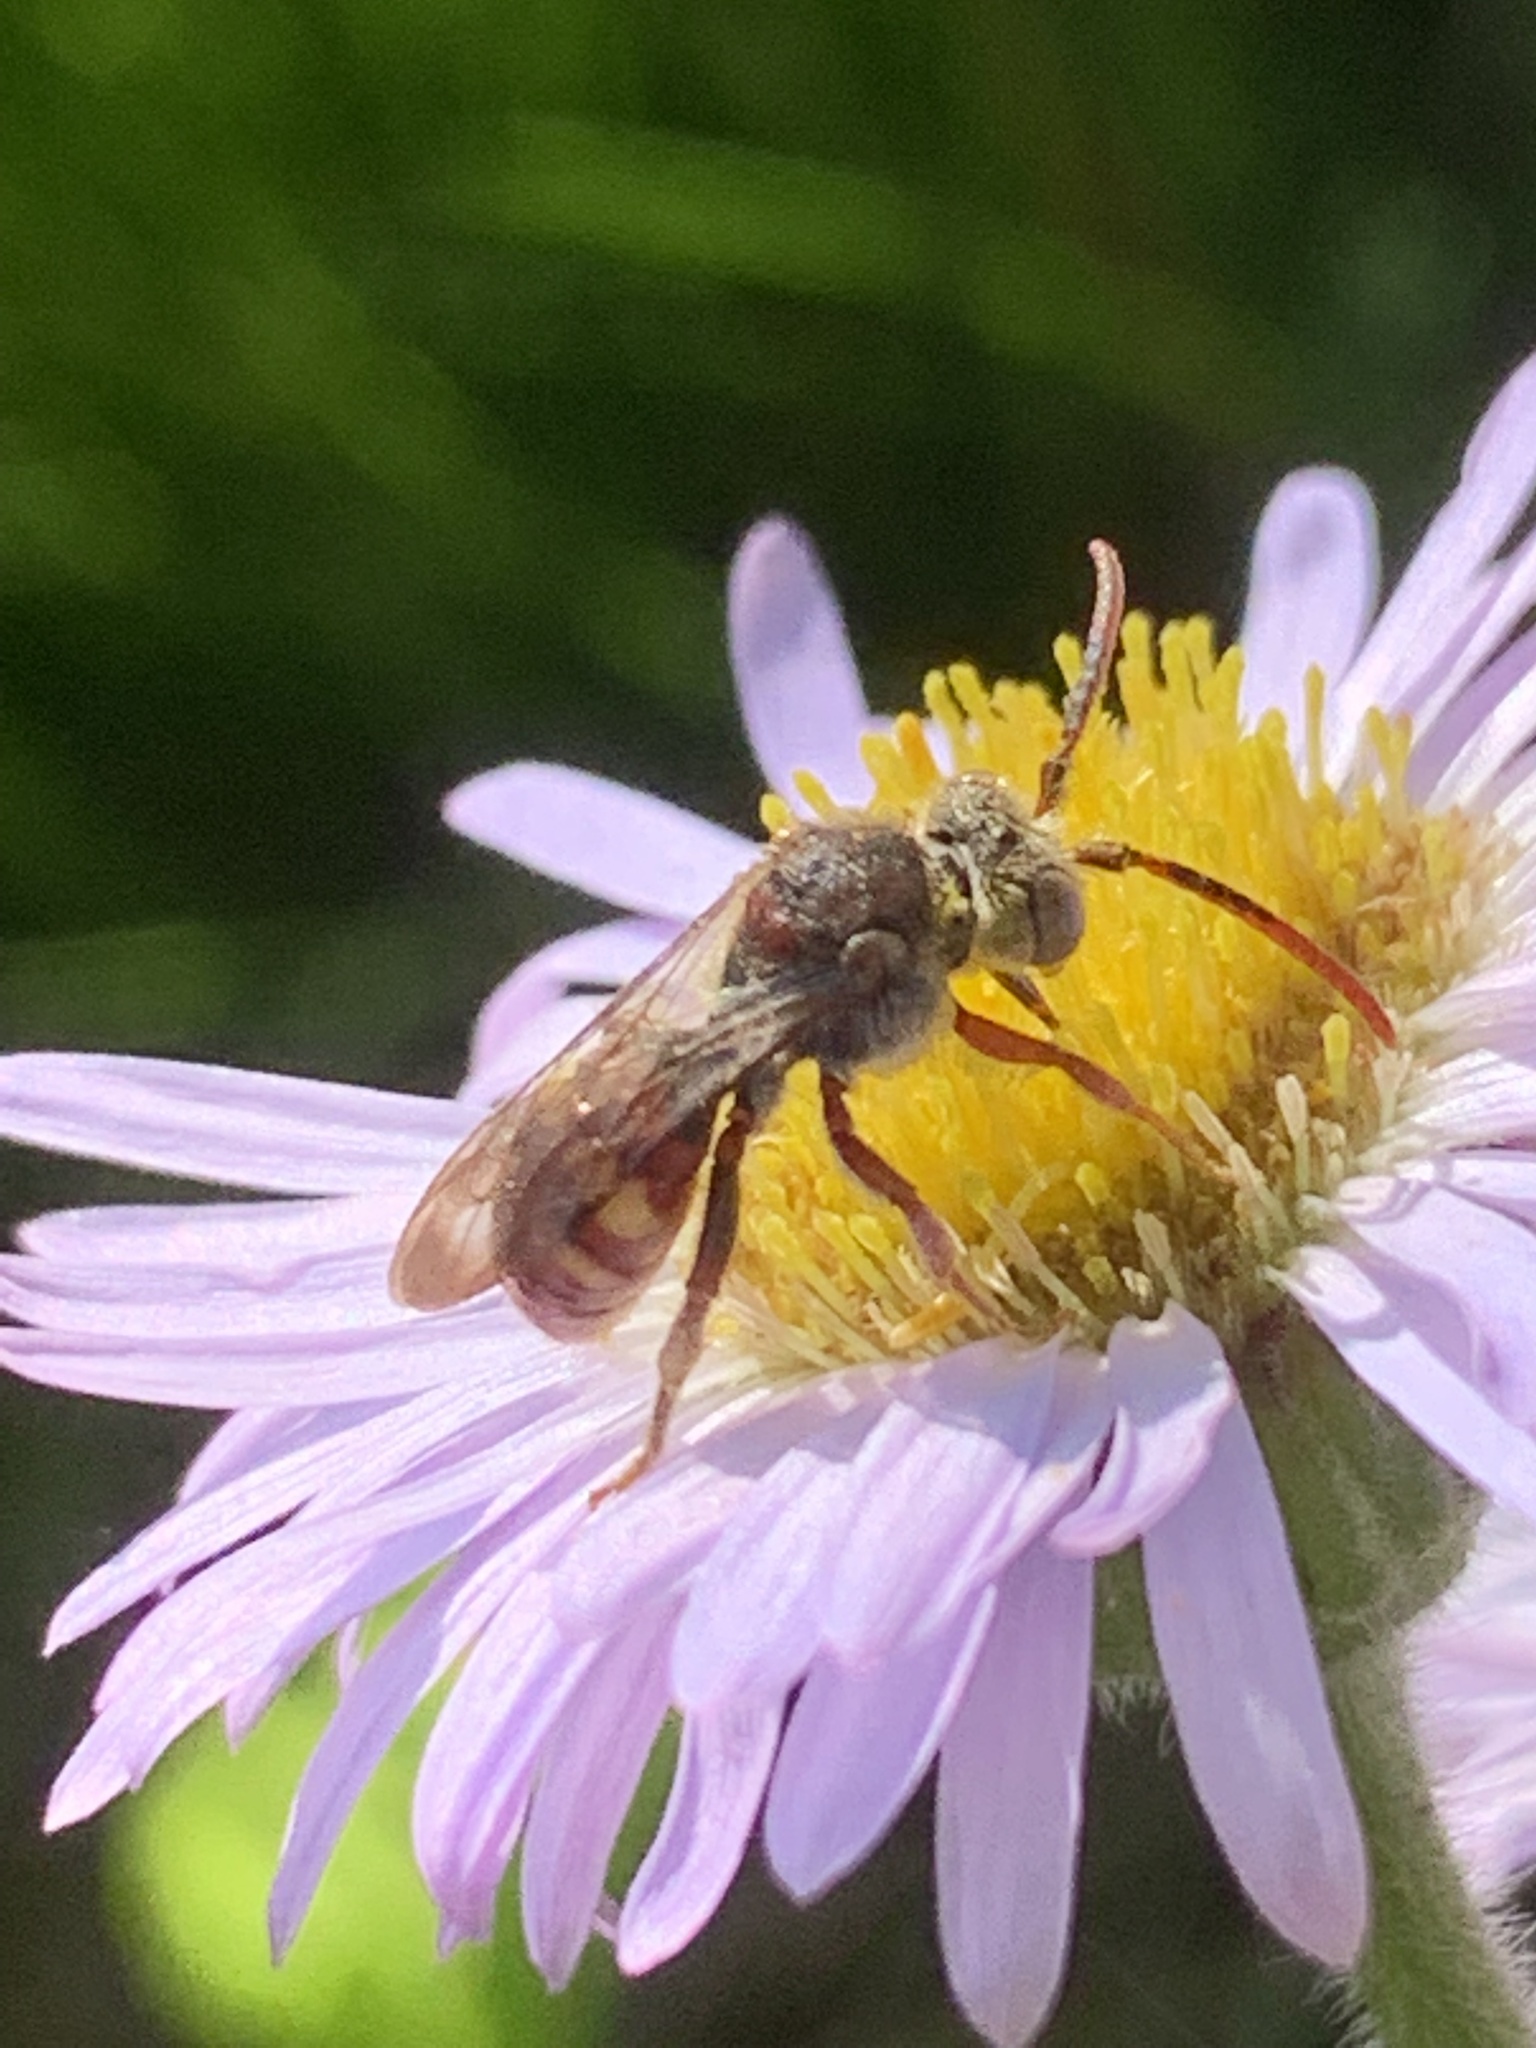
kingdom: Animalia
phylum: Arthropoda
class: Insecta
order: Hymenoptera
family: Apidae
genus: Nomada
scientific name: Nomada
